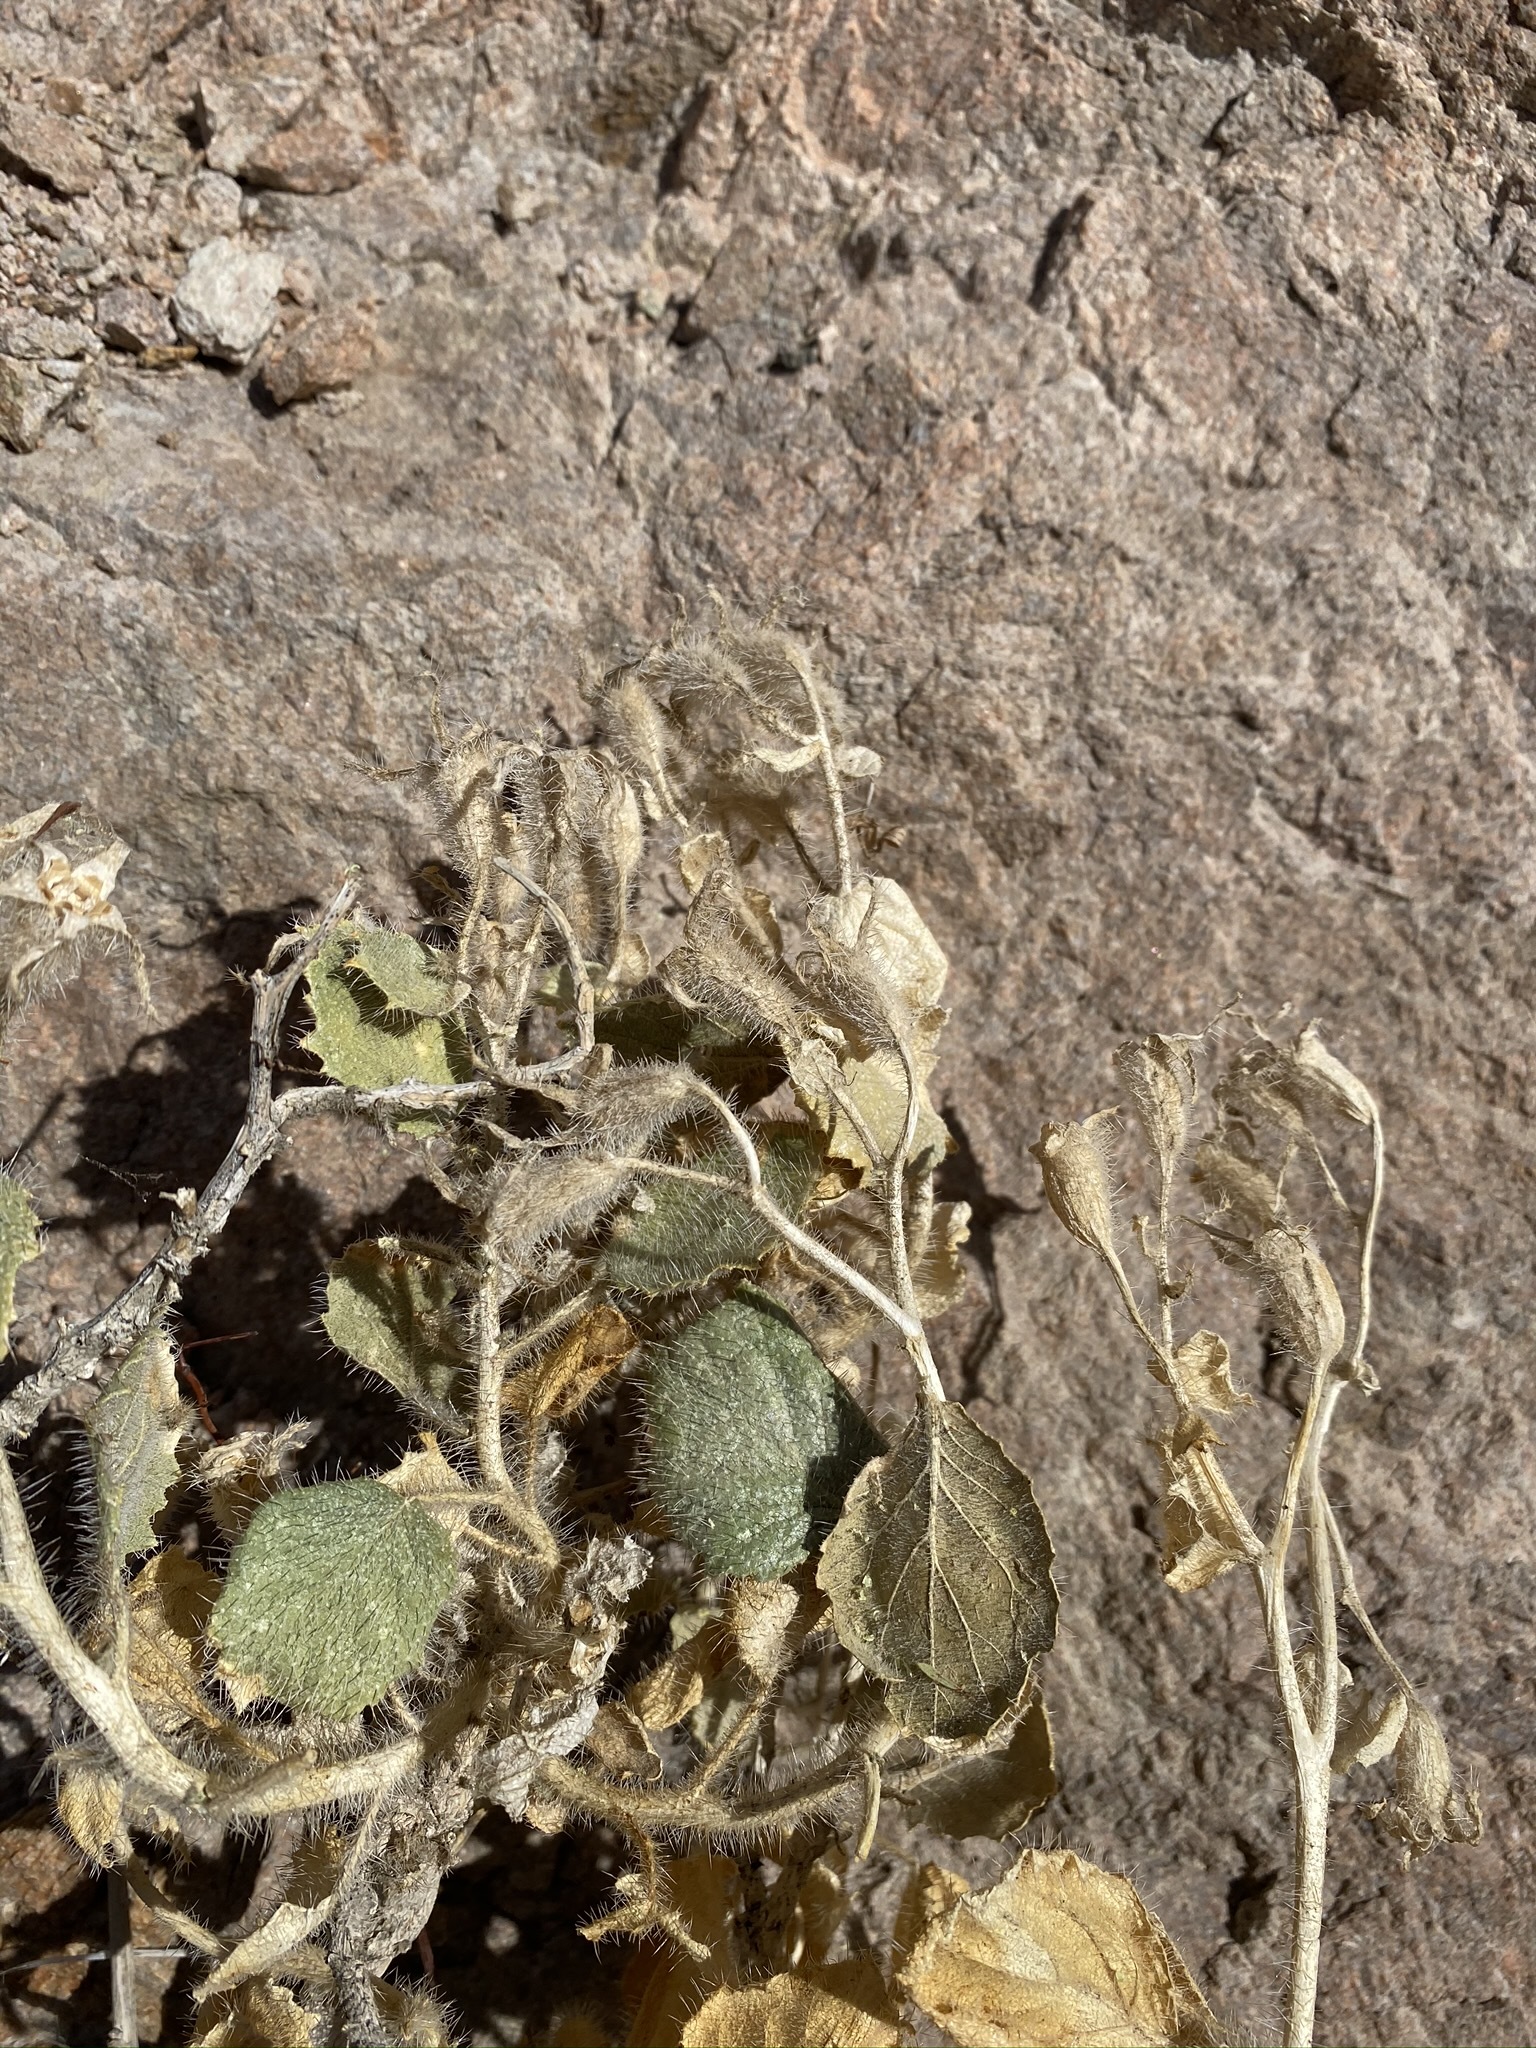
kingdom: Plantae
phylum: Tracheophyta
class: Magnoliopsida
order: Cornales
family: Loasaceae
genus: Eucnide
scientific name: Eucnide urens
